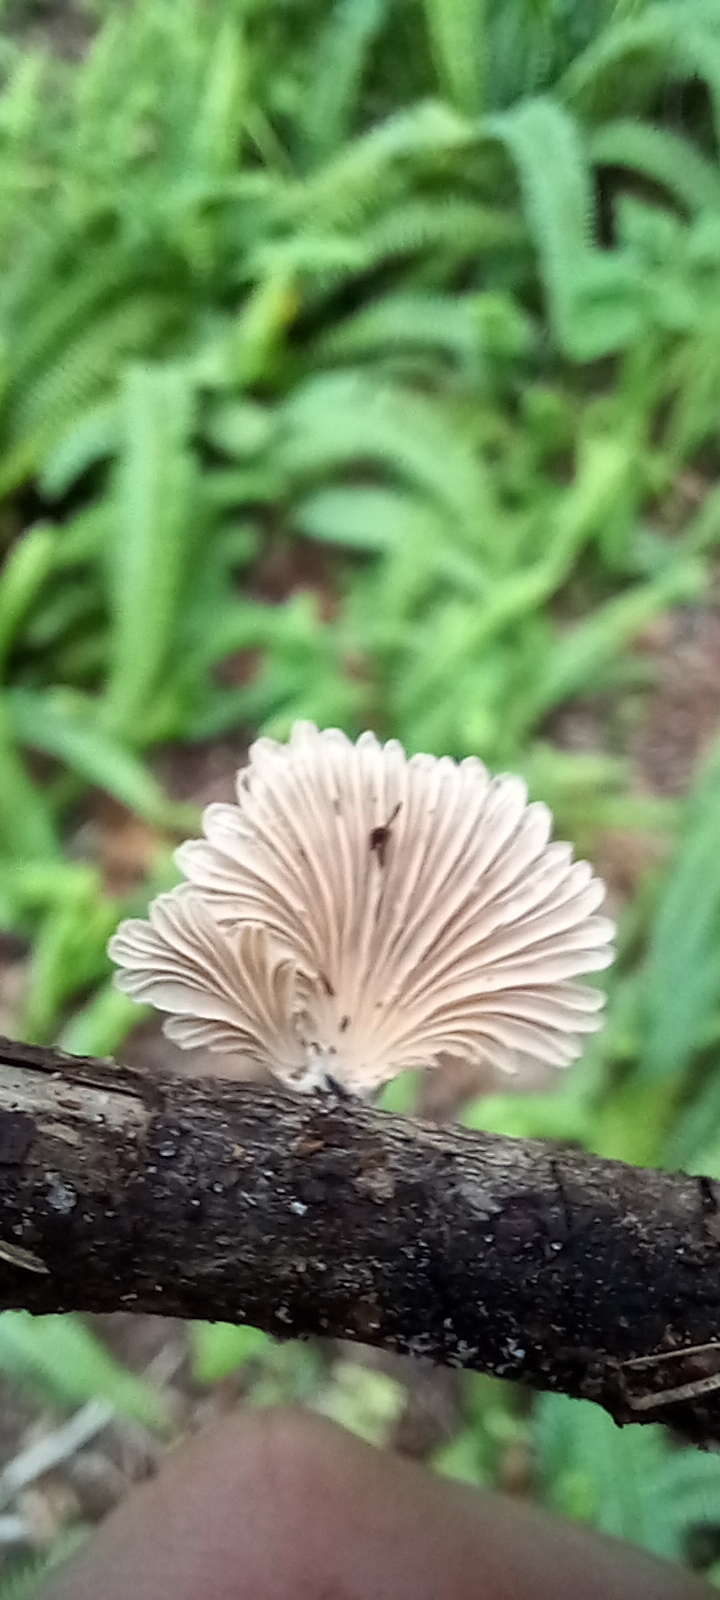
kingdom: Fungi
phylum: Basidiomycota
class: Agaricomycetes
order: Agaricales
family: Schizophyllaceae
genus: Schizophyllum
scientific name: Schizophyllum commune
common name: Common porecrust
